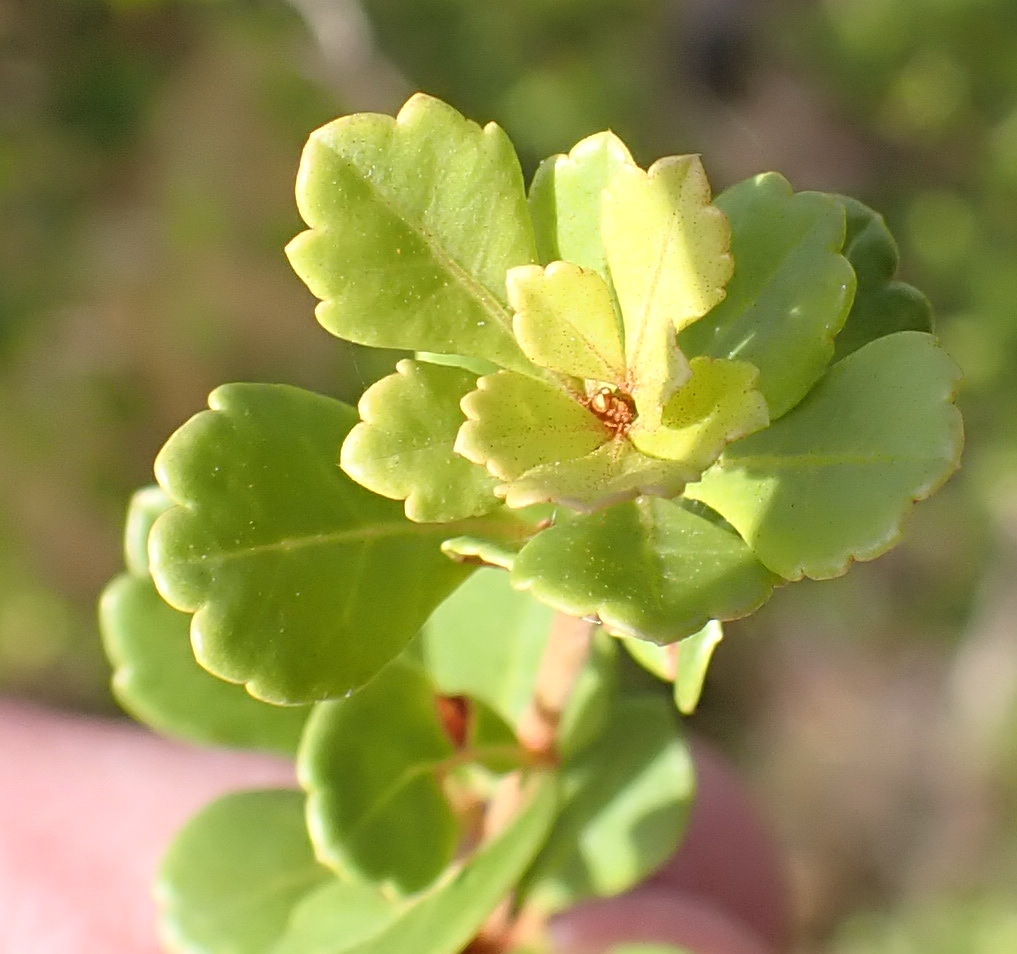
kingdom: Plantae
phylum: Tracheophyta
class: Magnoliopsida
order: Sapindales
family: Anacardiaceae
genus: Searsia
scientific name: Searsia crenata
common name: Crowberry
